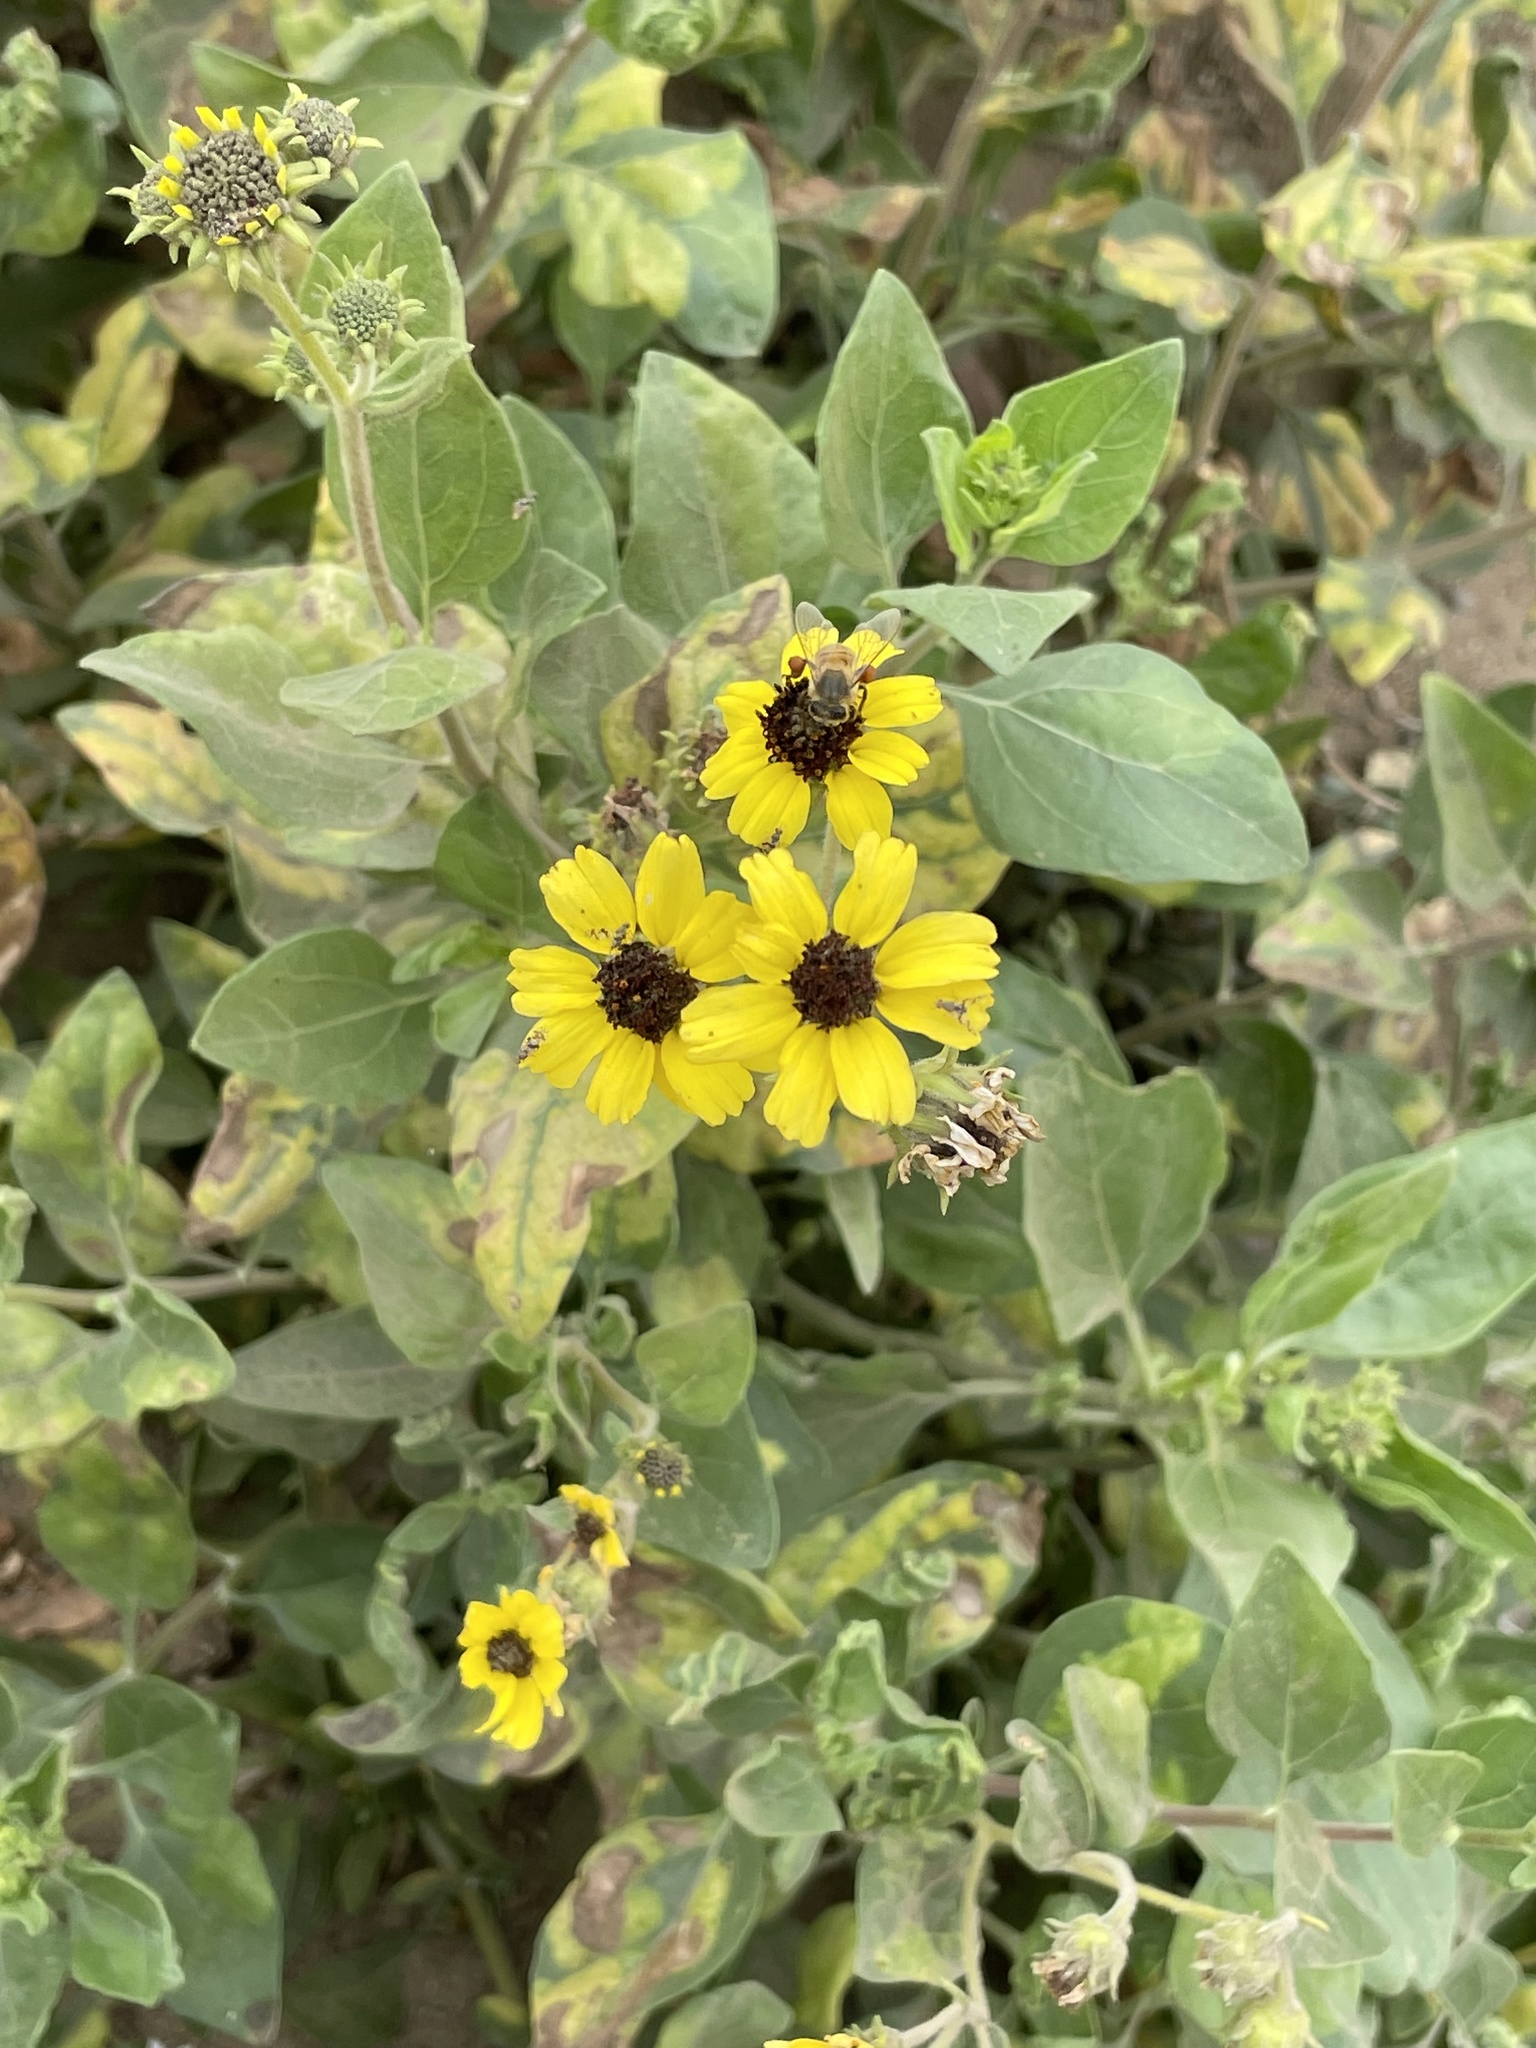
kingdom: Plantae
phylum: Tracheophyta
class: Magnoliopsida
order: Asterales
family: Asteraceae
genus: Encelia
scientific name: Encelia canescens
